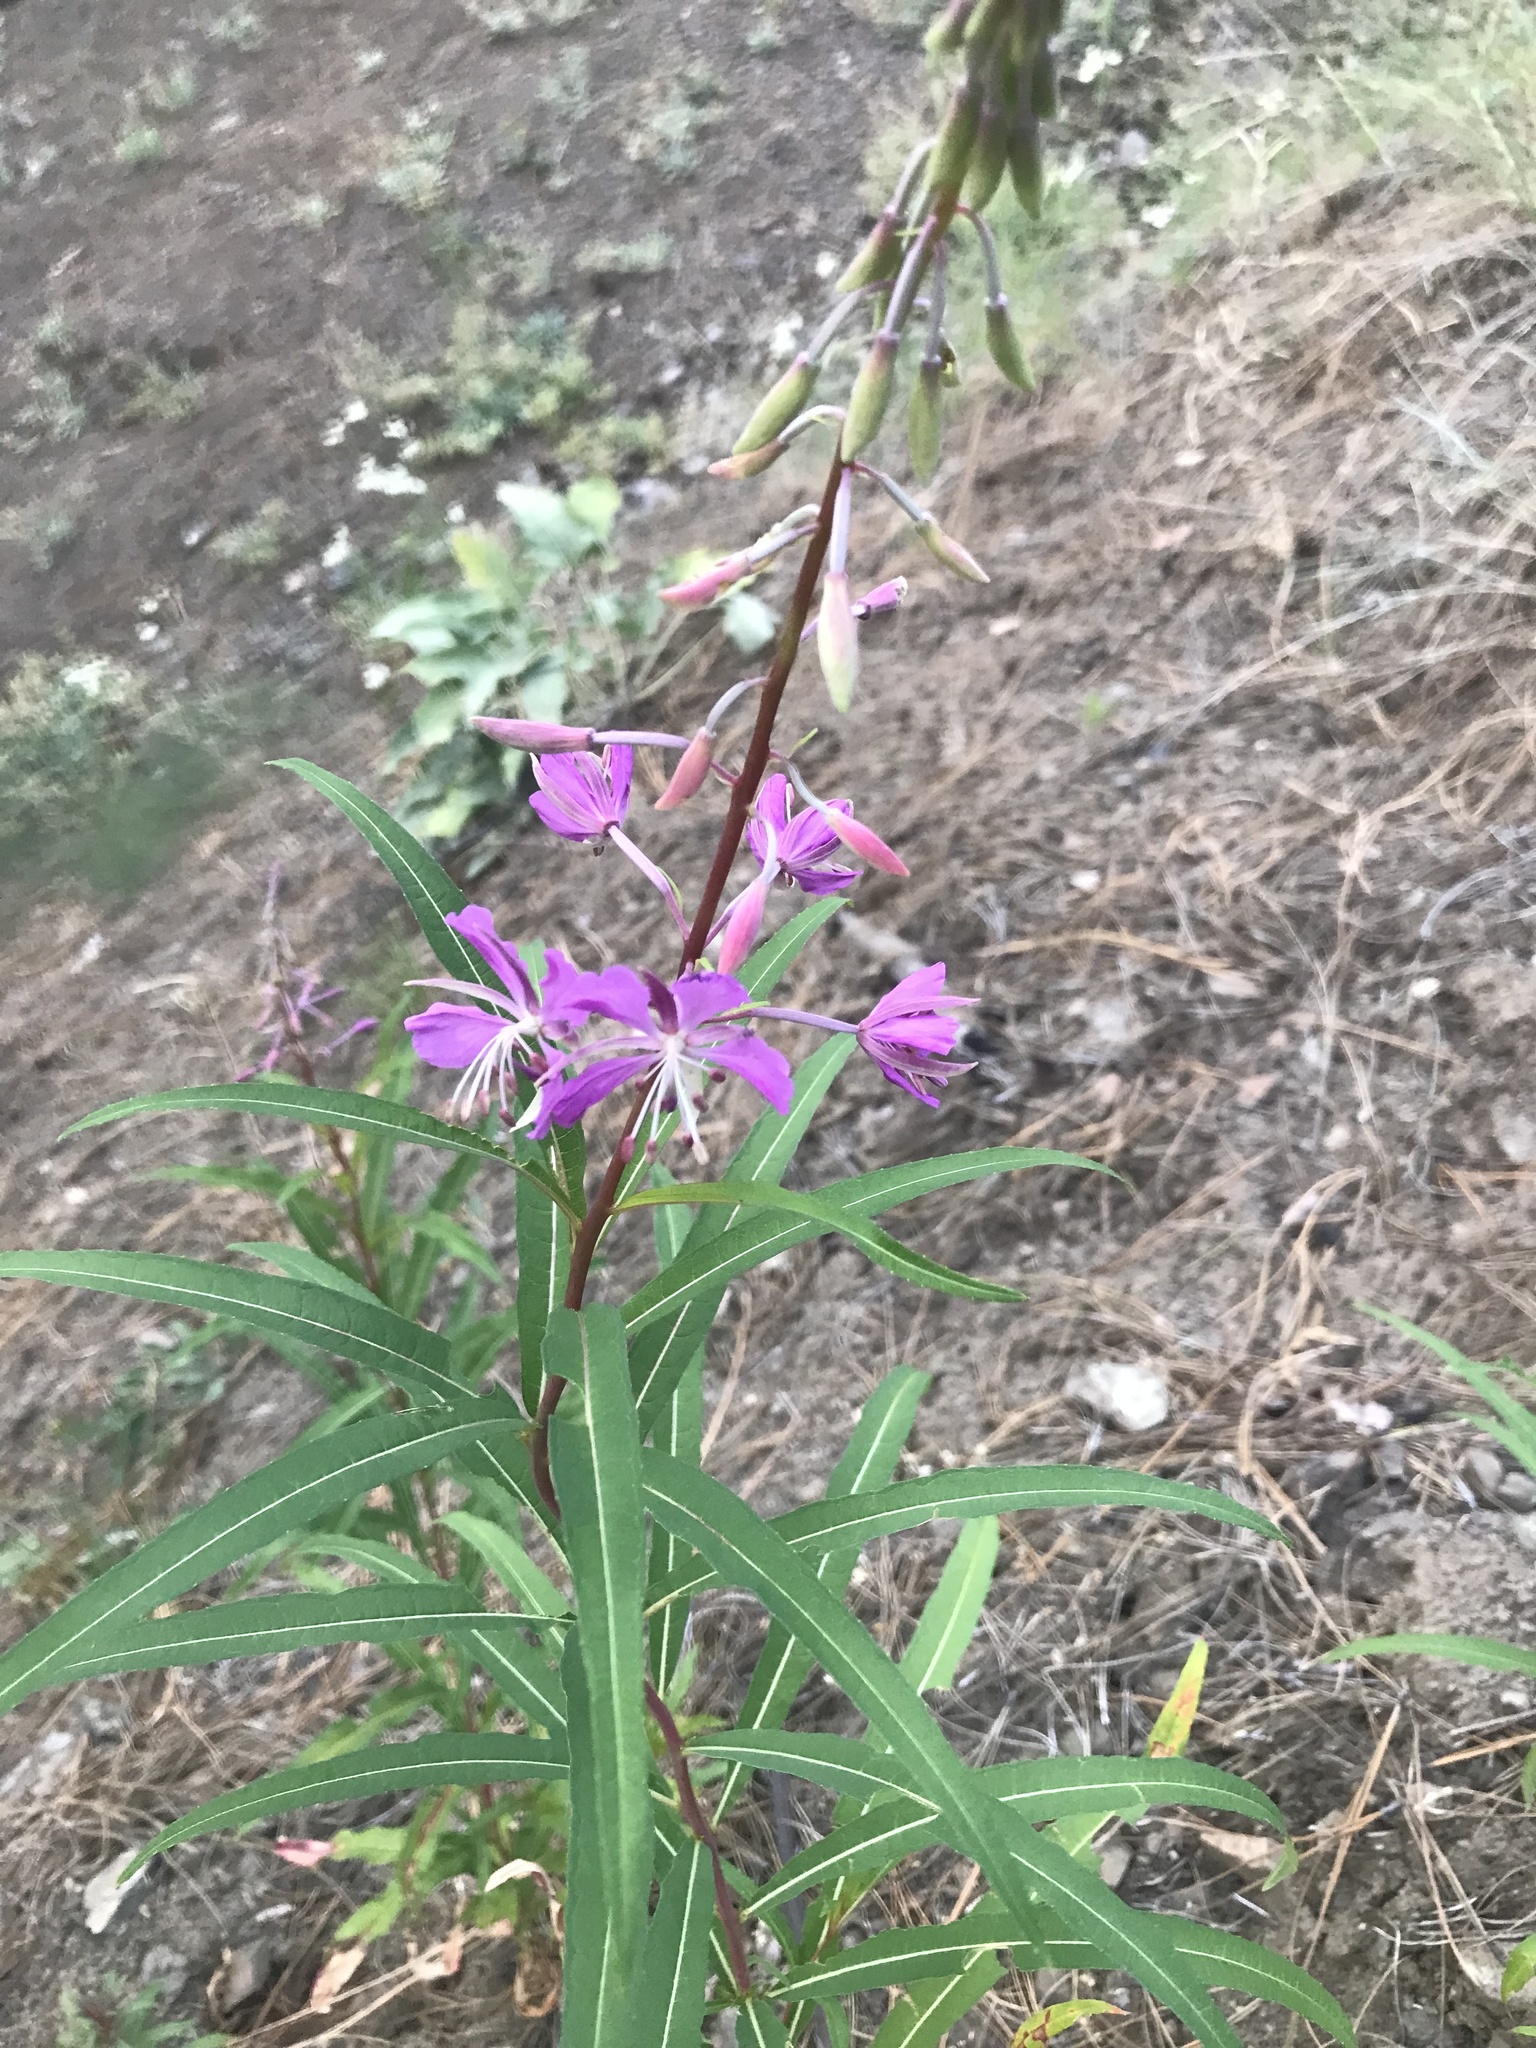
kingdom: Plantae
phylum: Tracheophyta
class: Magnoliopsida
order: Myrtales
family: Onagraceae
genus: Chamaenerion
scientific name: Chamaenerion angustifolium
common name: Fireweed
